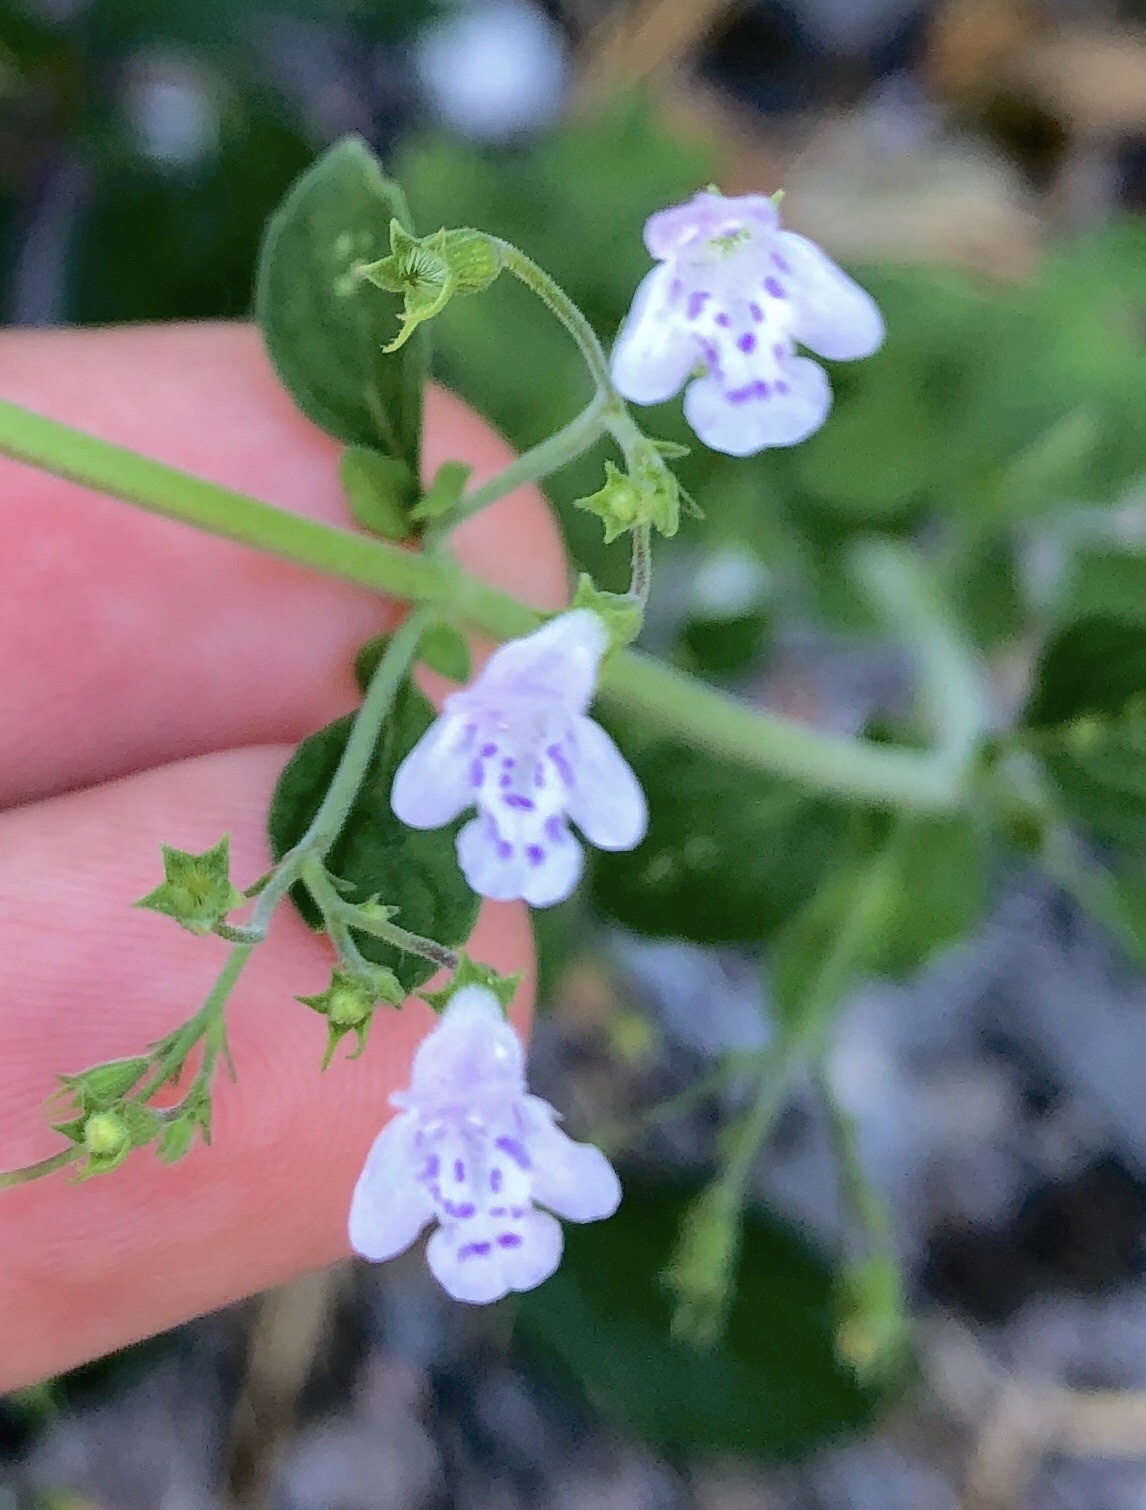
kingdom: Plantae
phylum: Tracheophyta
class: Magnoliopsida
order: Lamiales
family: Lamiaceae
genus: Clinopodium
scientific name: Clinopodium nepeta
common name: Lesser calamint
